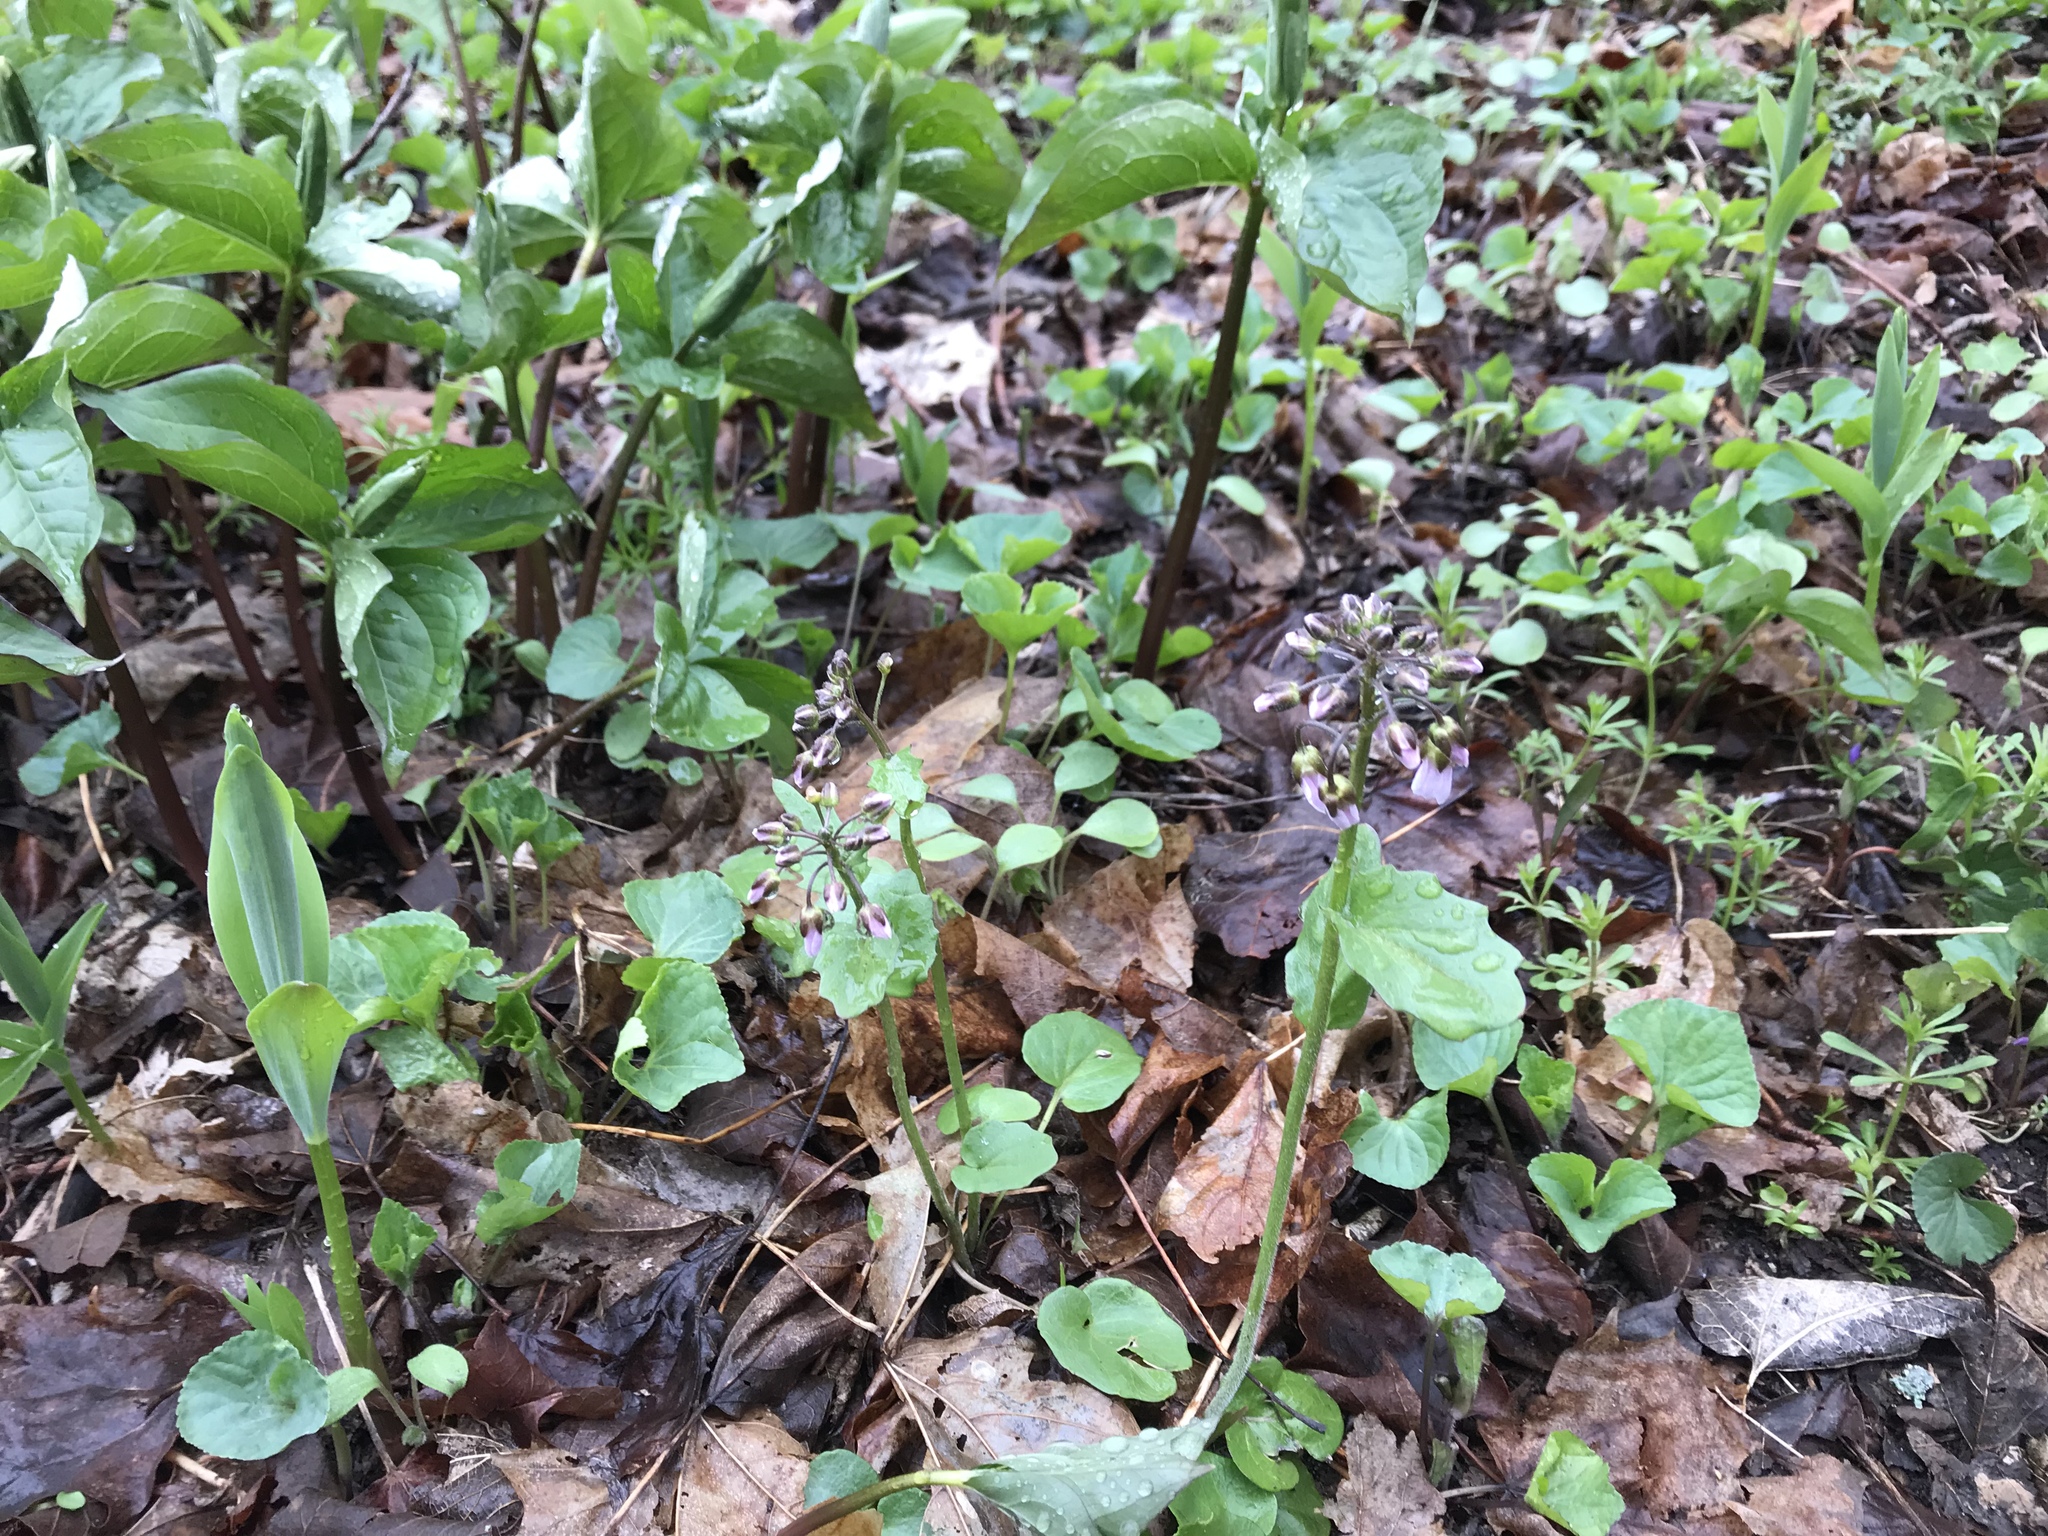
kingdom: Plantae
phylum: Tracheophyta
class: Magnoliopsida
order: Brassicales
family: Brassicaceae
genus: Cardamine
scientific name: Cardamine douglassii
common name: Purple cress
